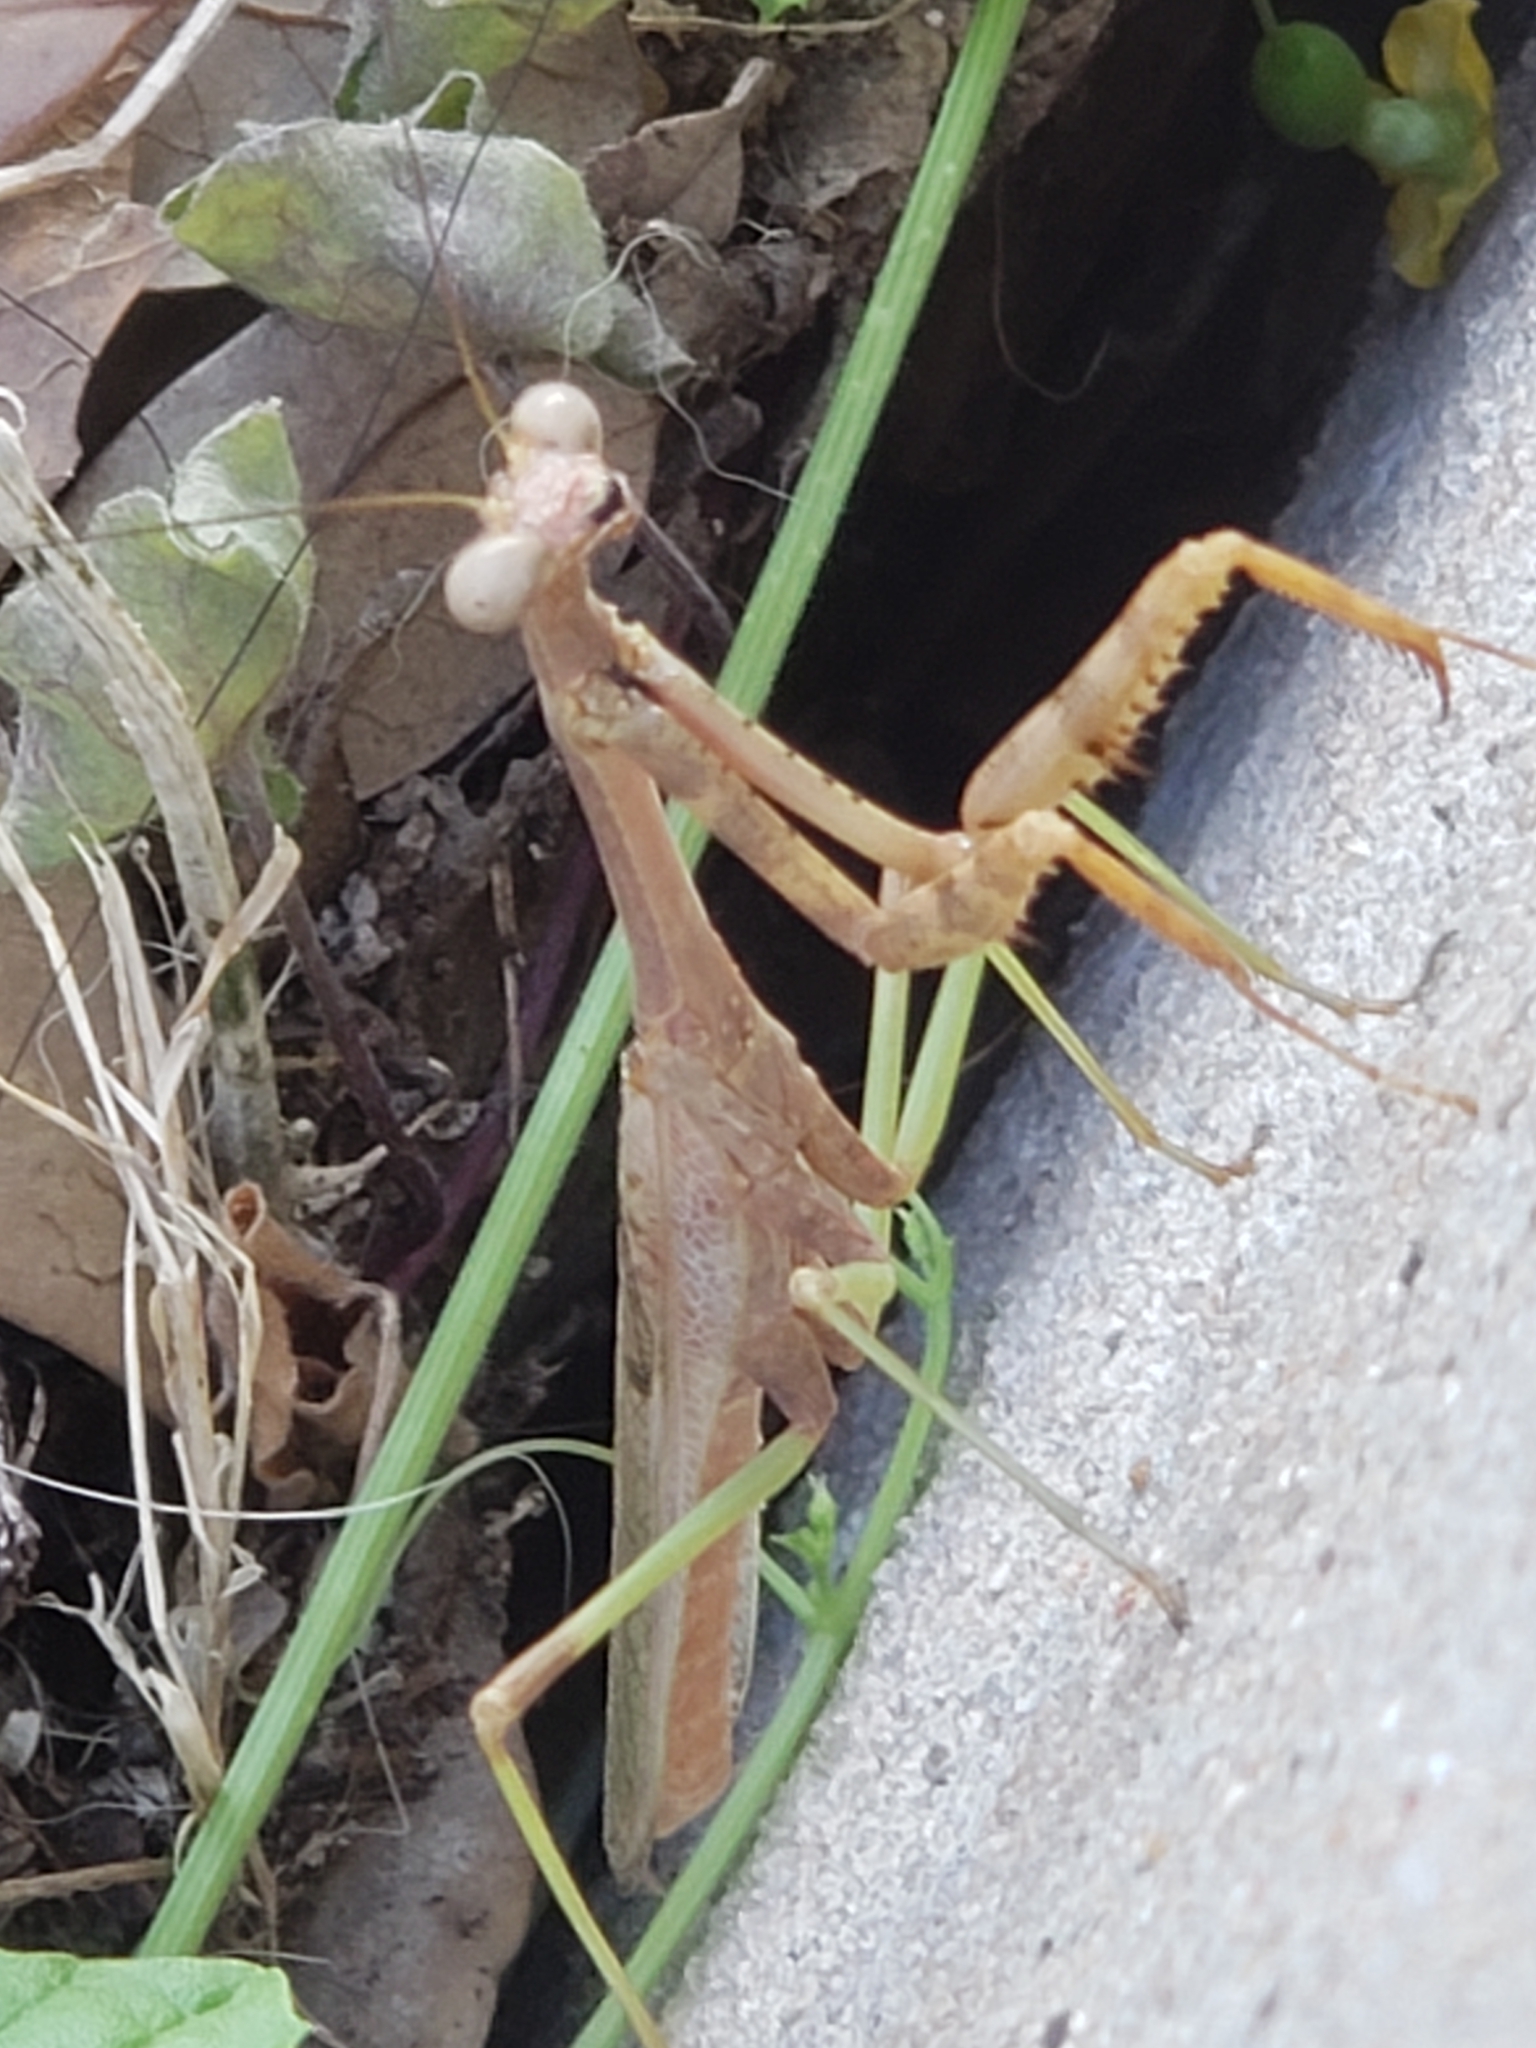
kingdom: Animalia
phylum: Arthropoda
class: Insecta
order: Mantodea
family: Mantidae
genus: Stagmomantis
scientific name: Stagmomantis carolina
